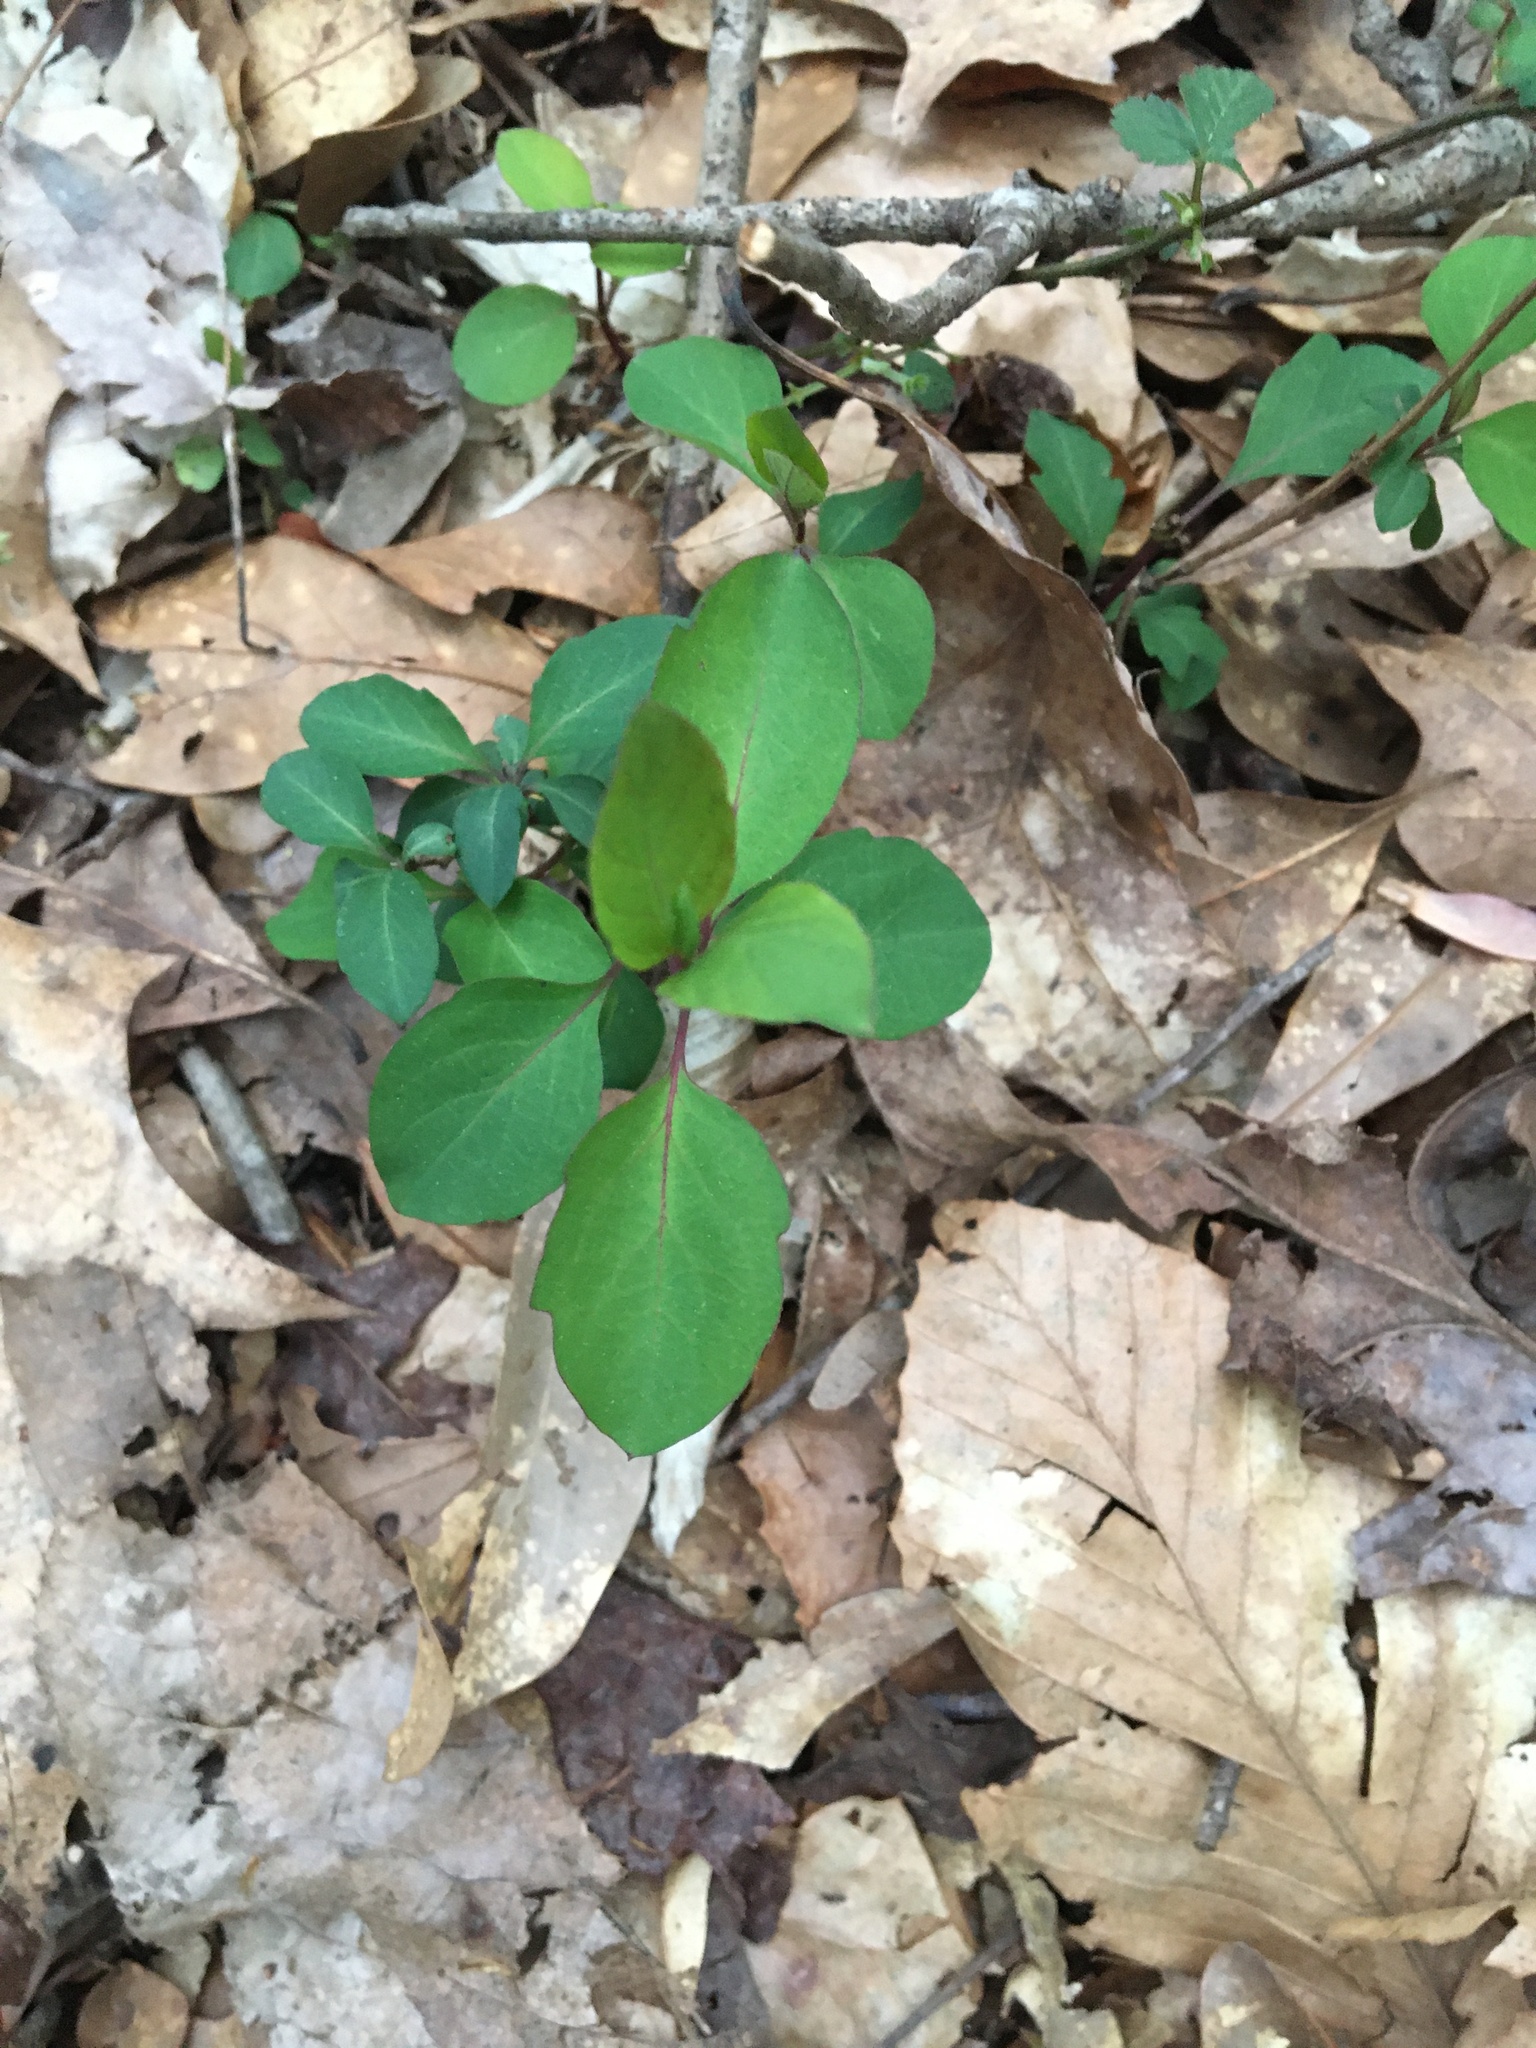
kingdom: Plantae
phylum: Tracheophyta
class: Magnoliopsida
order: Dipsacales
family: Caprifoliaceae
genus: Lonicera
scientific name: Lonicera japonica
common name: Japanese honeysuckle
